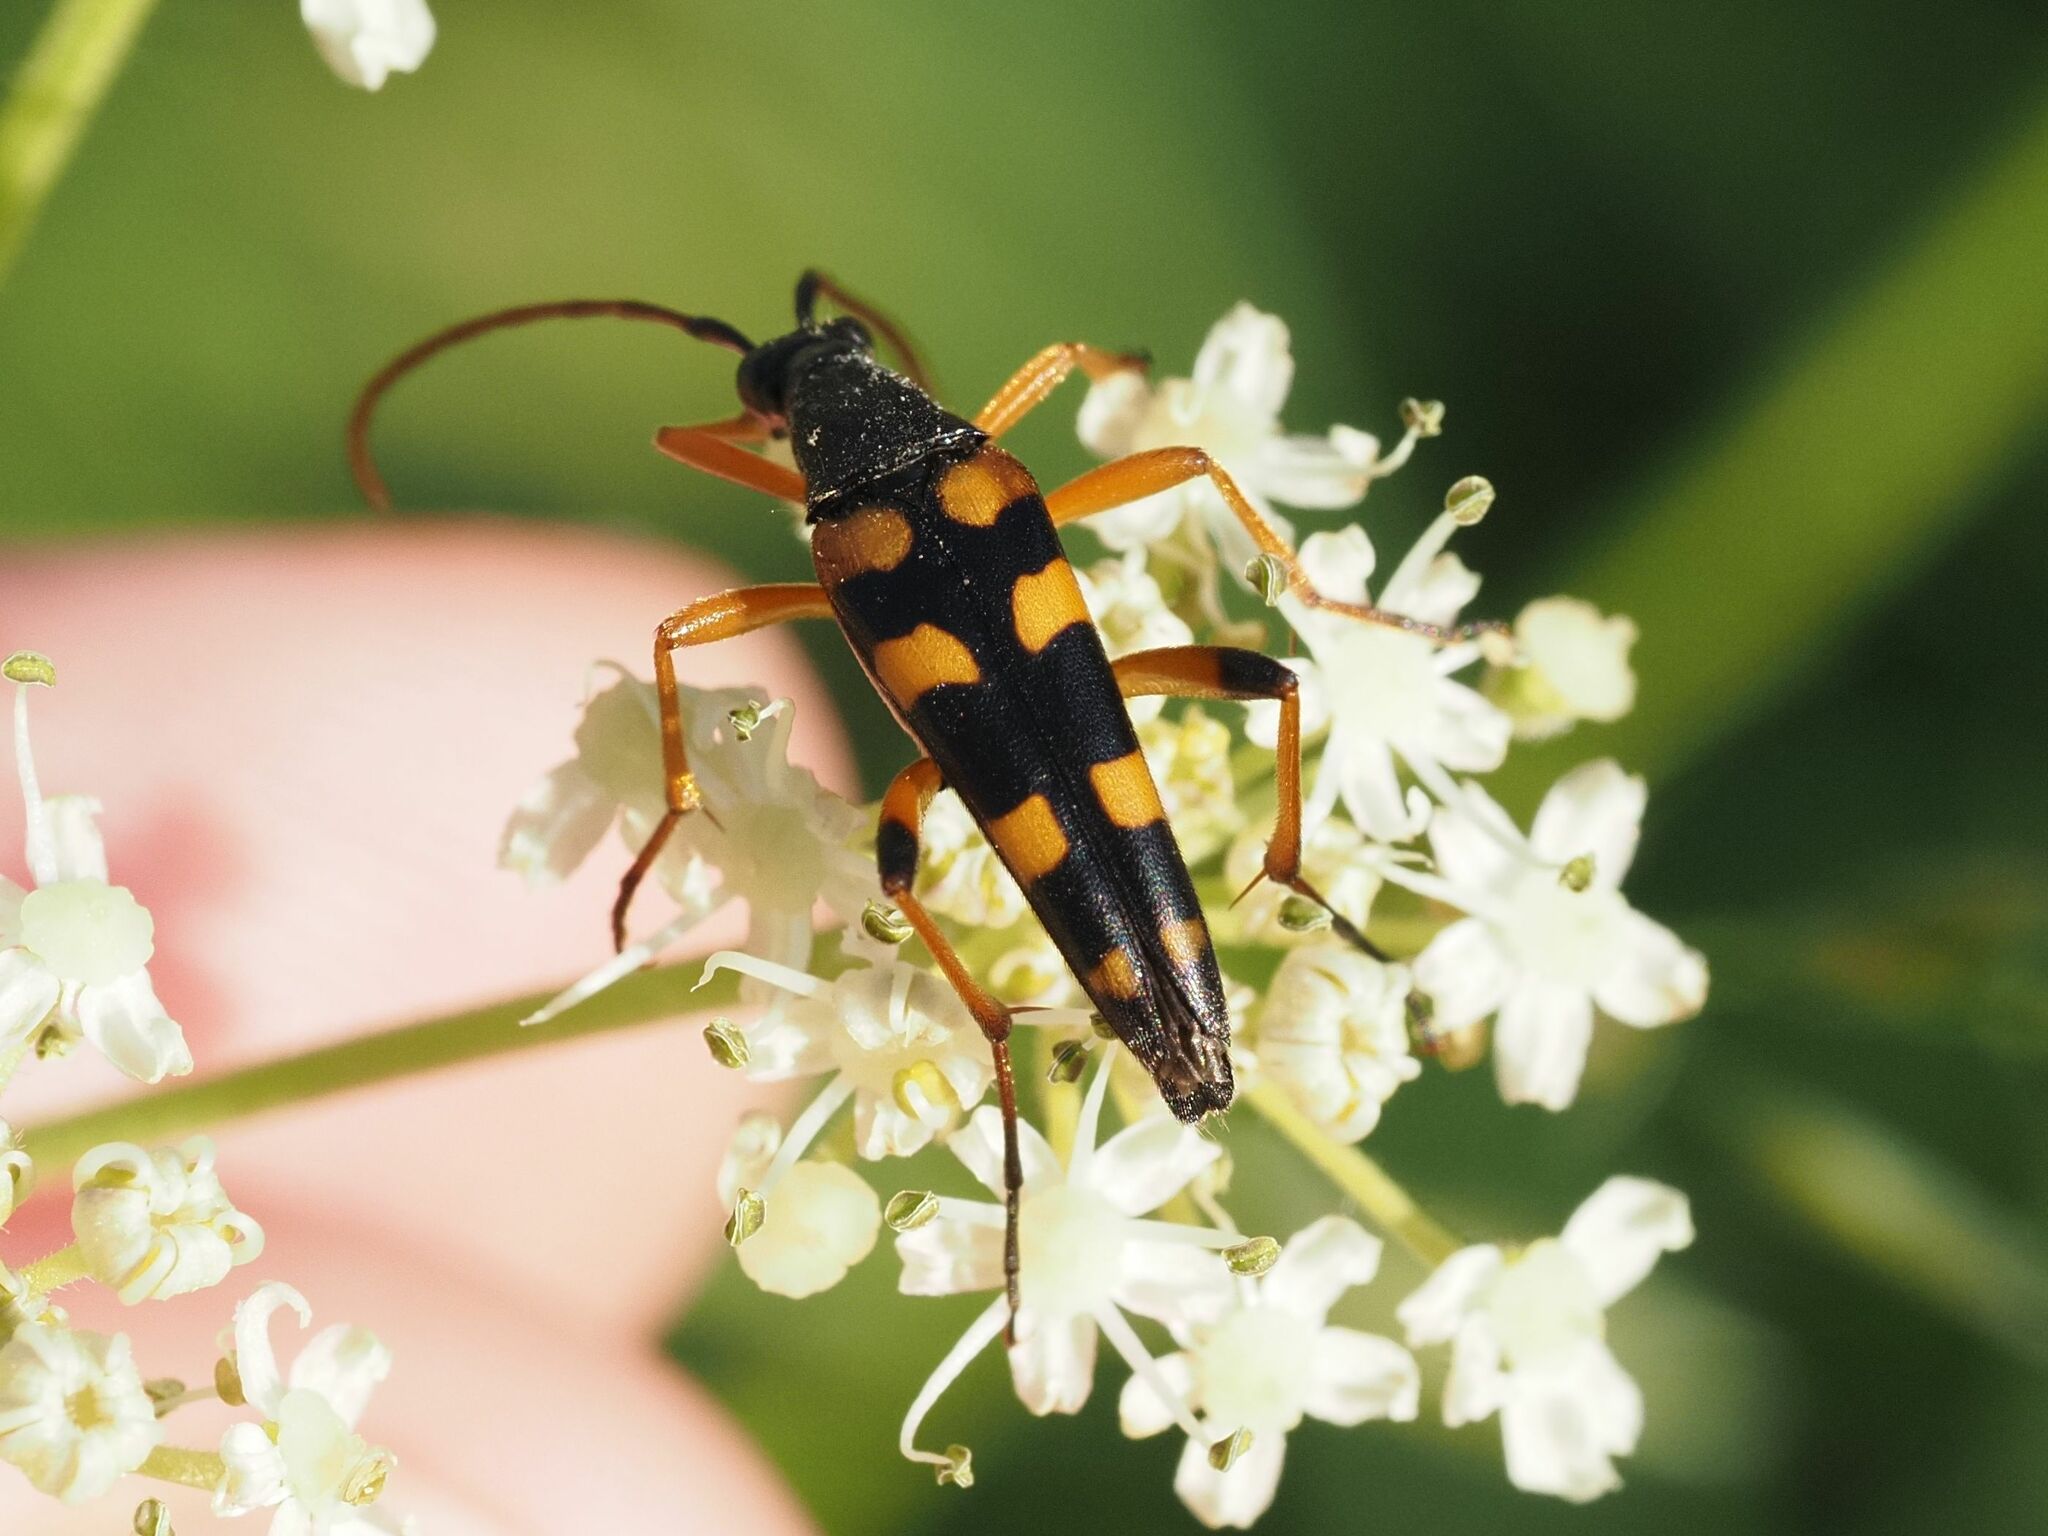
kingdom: Animalia
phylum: Arthropoda
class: Insecta
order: Coleoptera
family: Cerambycidae
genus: Strangalia
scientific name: Strangalia attenuata
